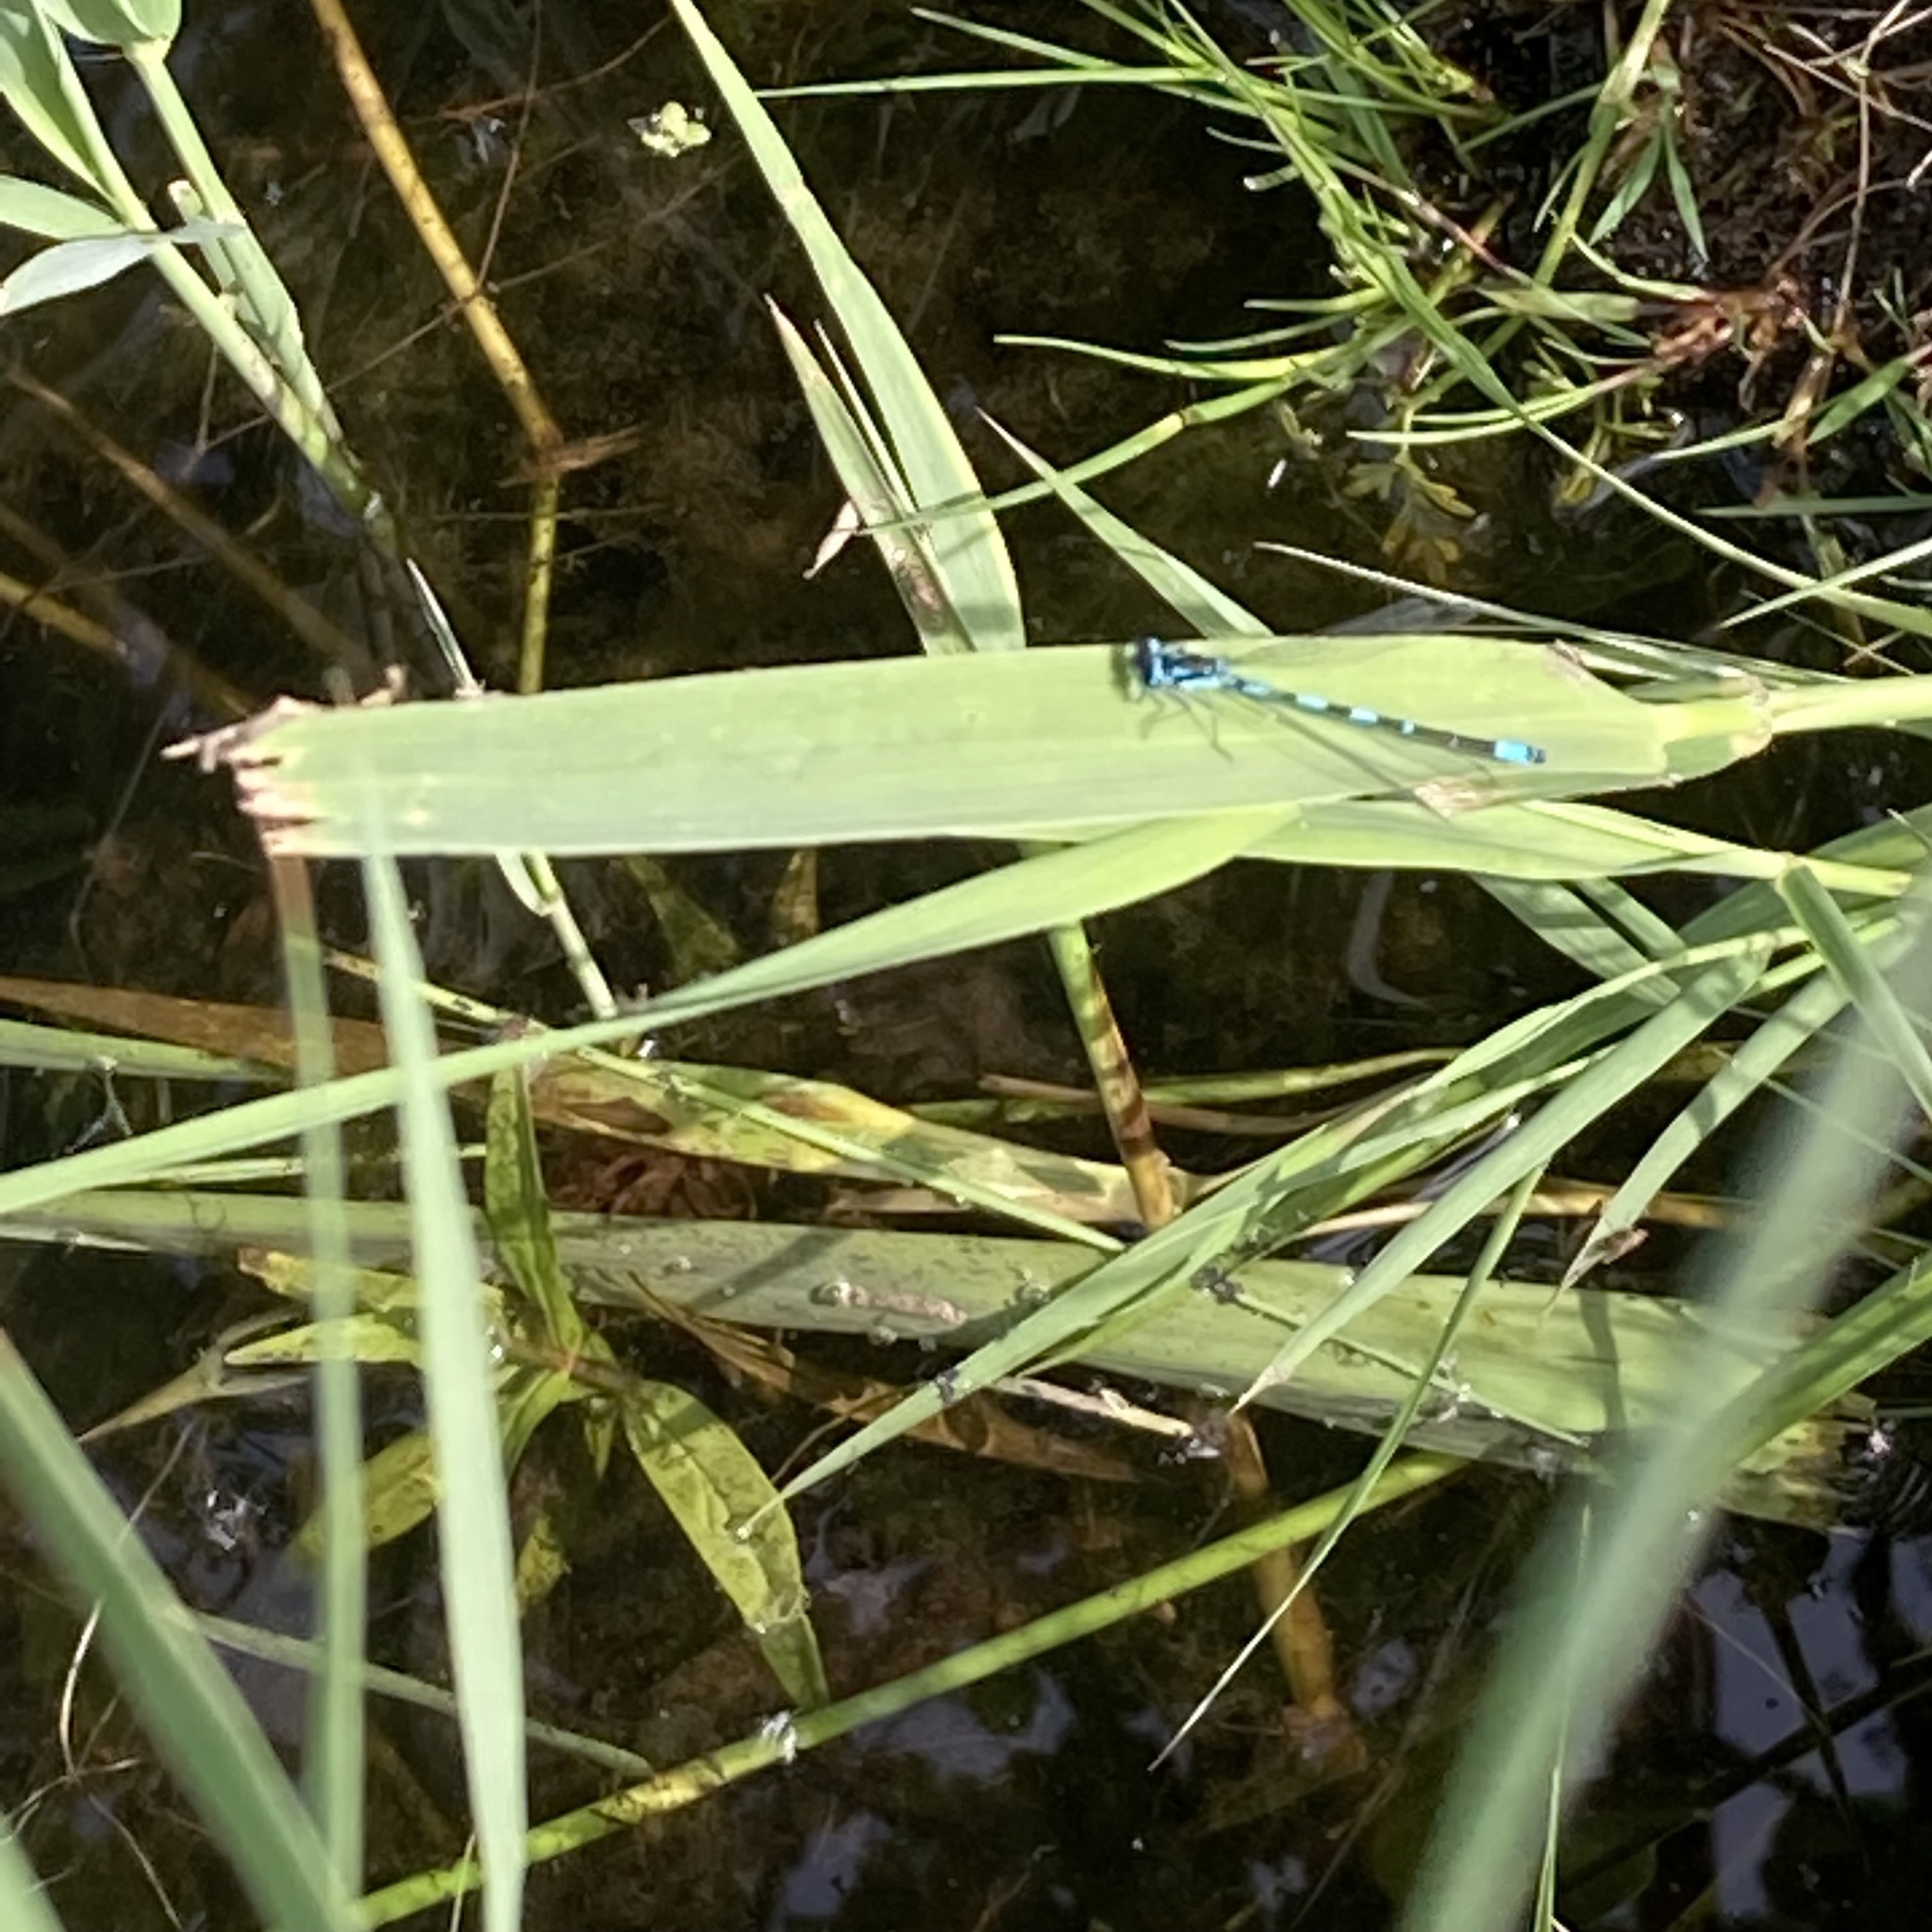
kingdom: Animalia
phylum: Arthropoda
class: Insecta
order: Odonata
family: Coenagrionidae
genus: Coenagrion
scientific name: Coenagrion pulchellum
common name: Variable bluet
